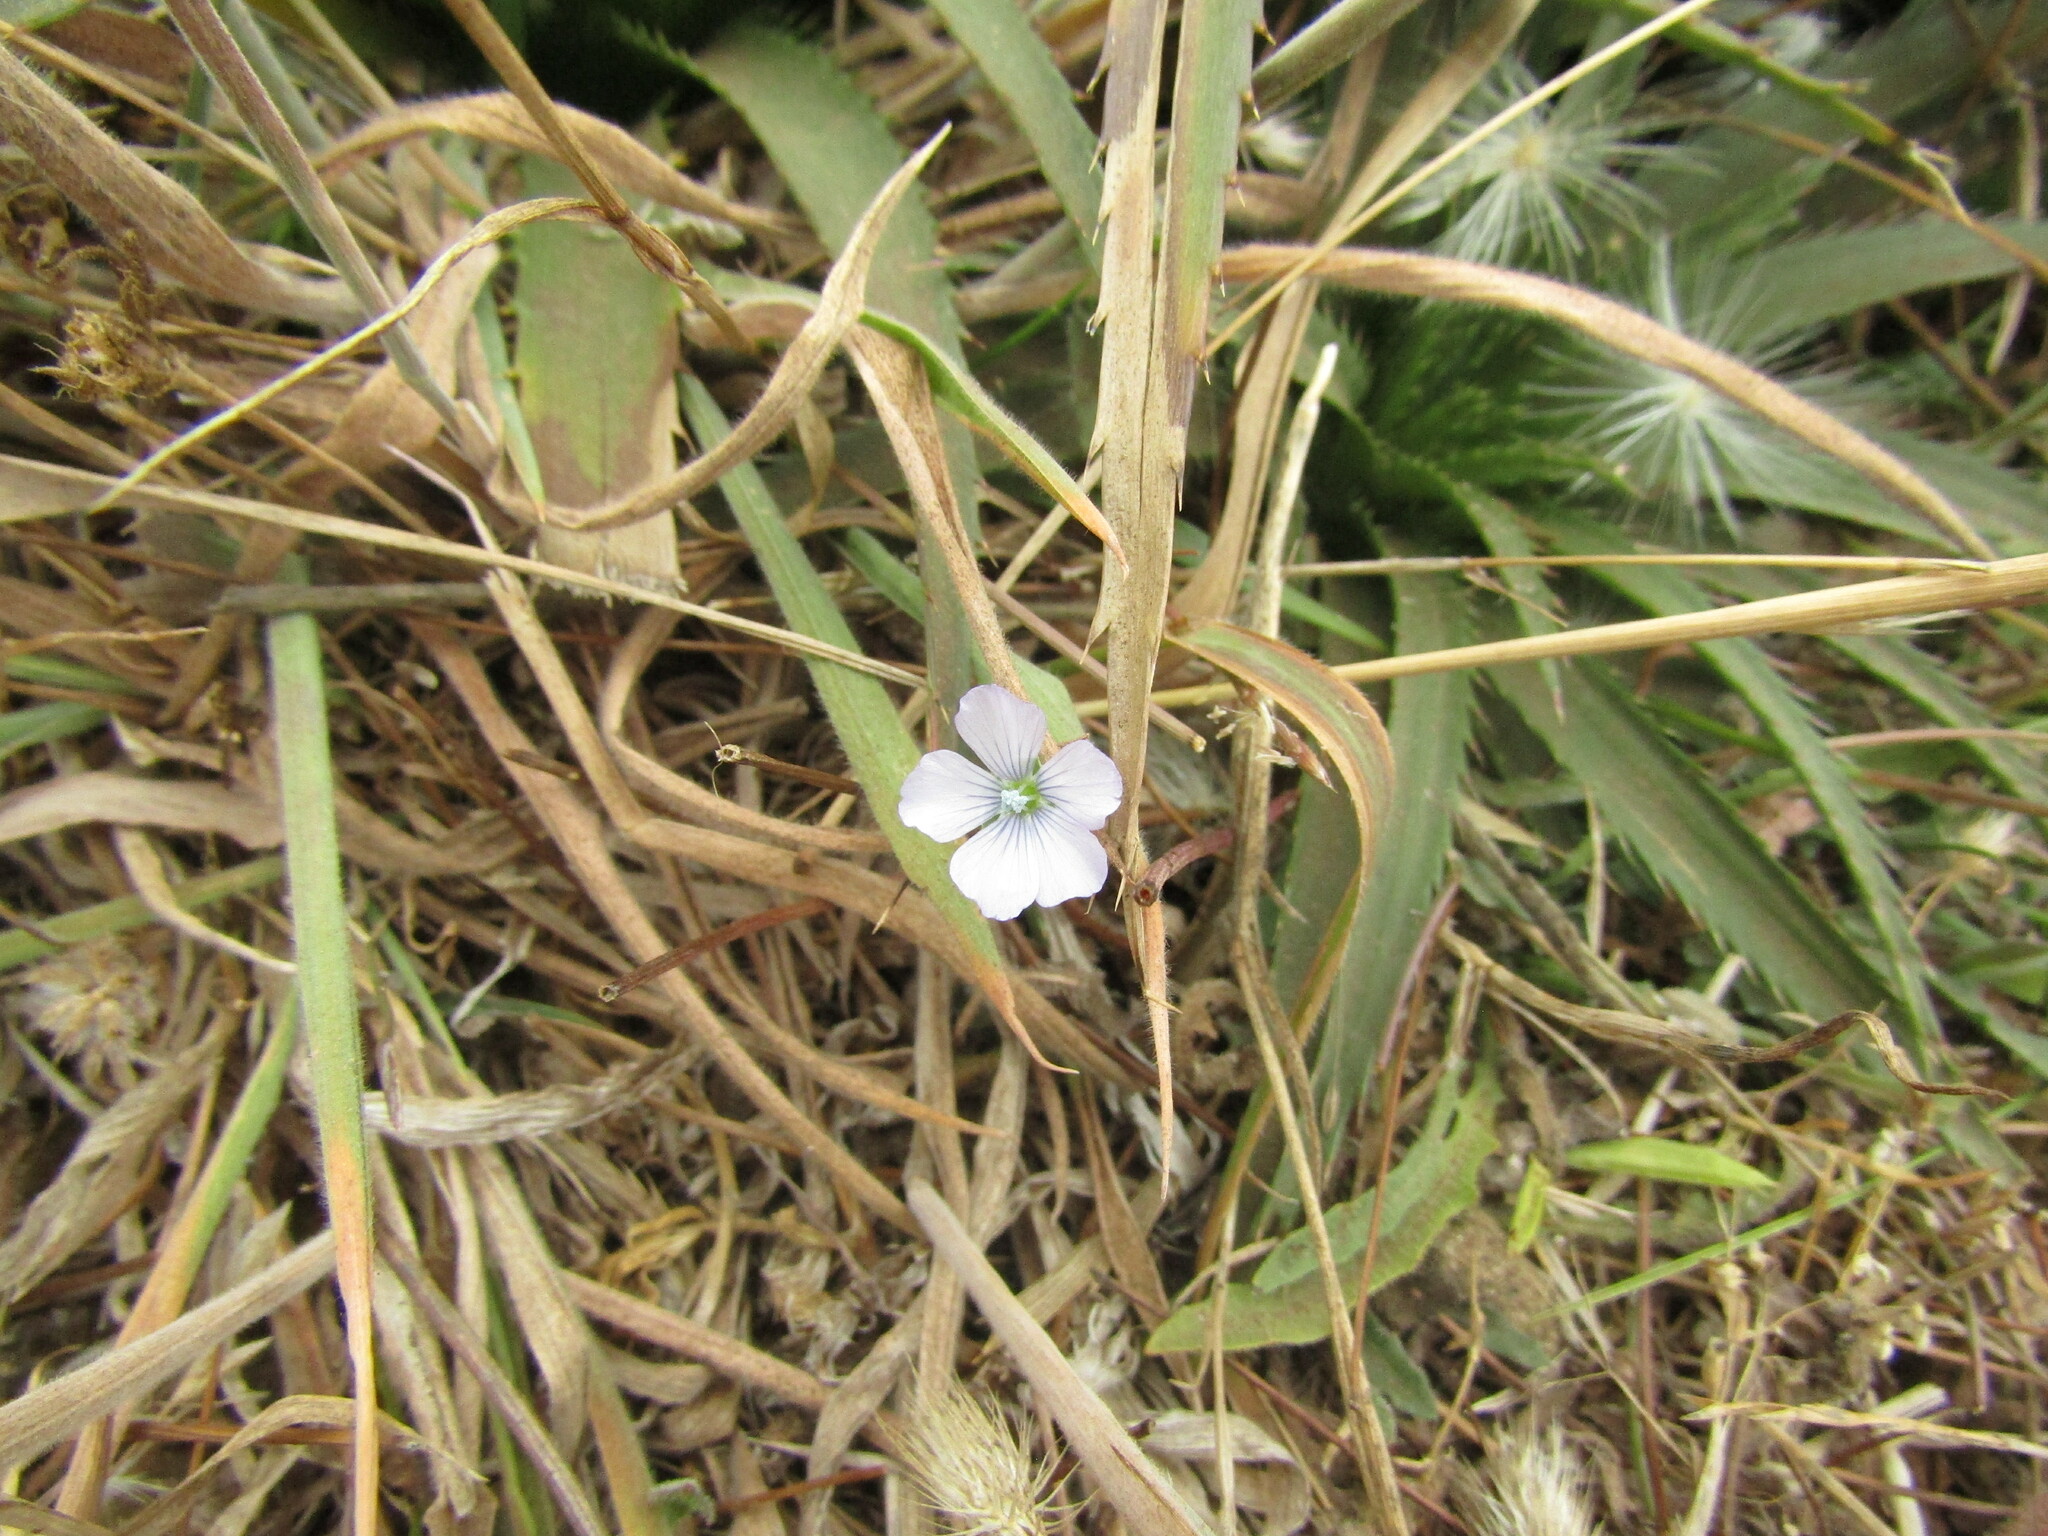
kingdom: Plantae
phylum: Tracheophyta
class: Magnoliopsida
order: Malpighiales
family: Linaceae
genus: Linum
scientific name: Linum bienne
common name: Pale flax
